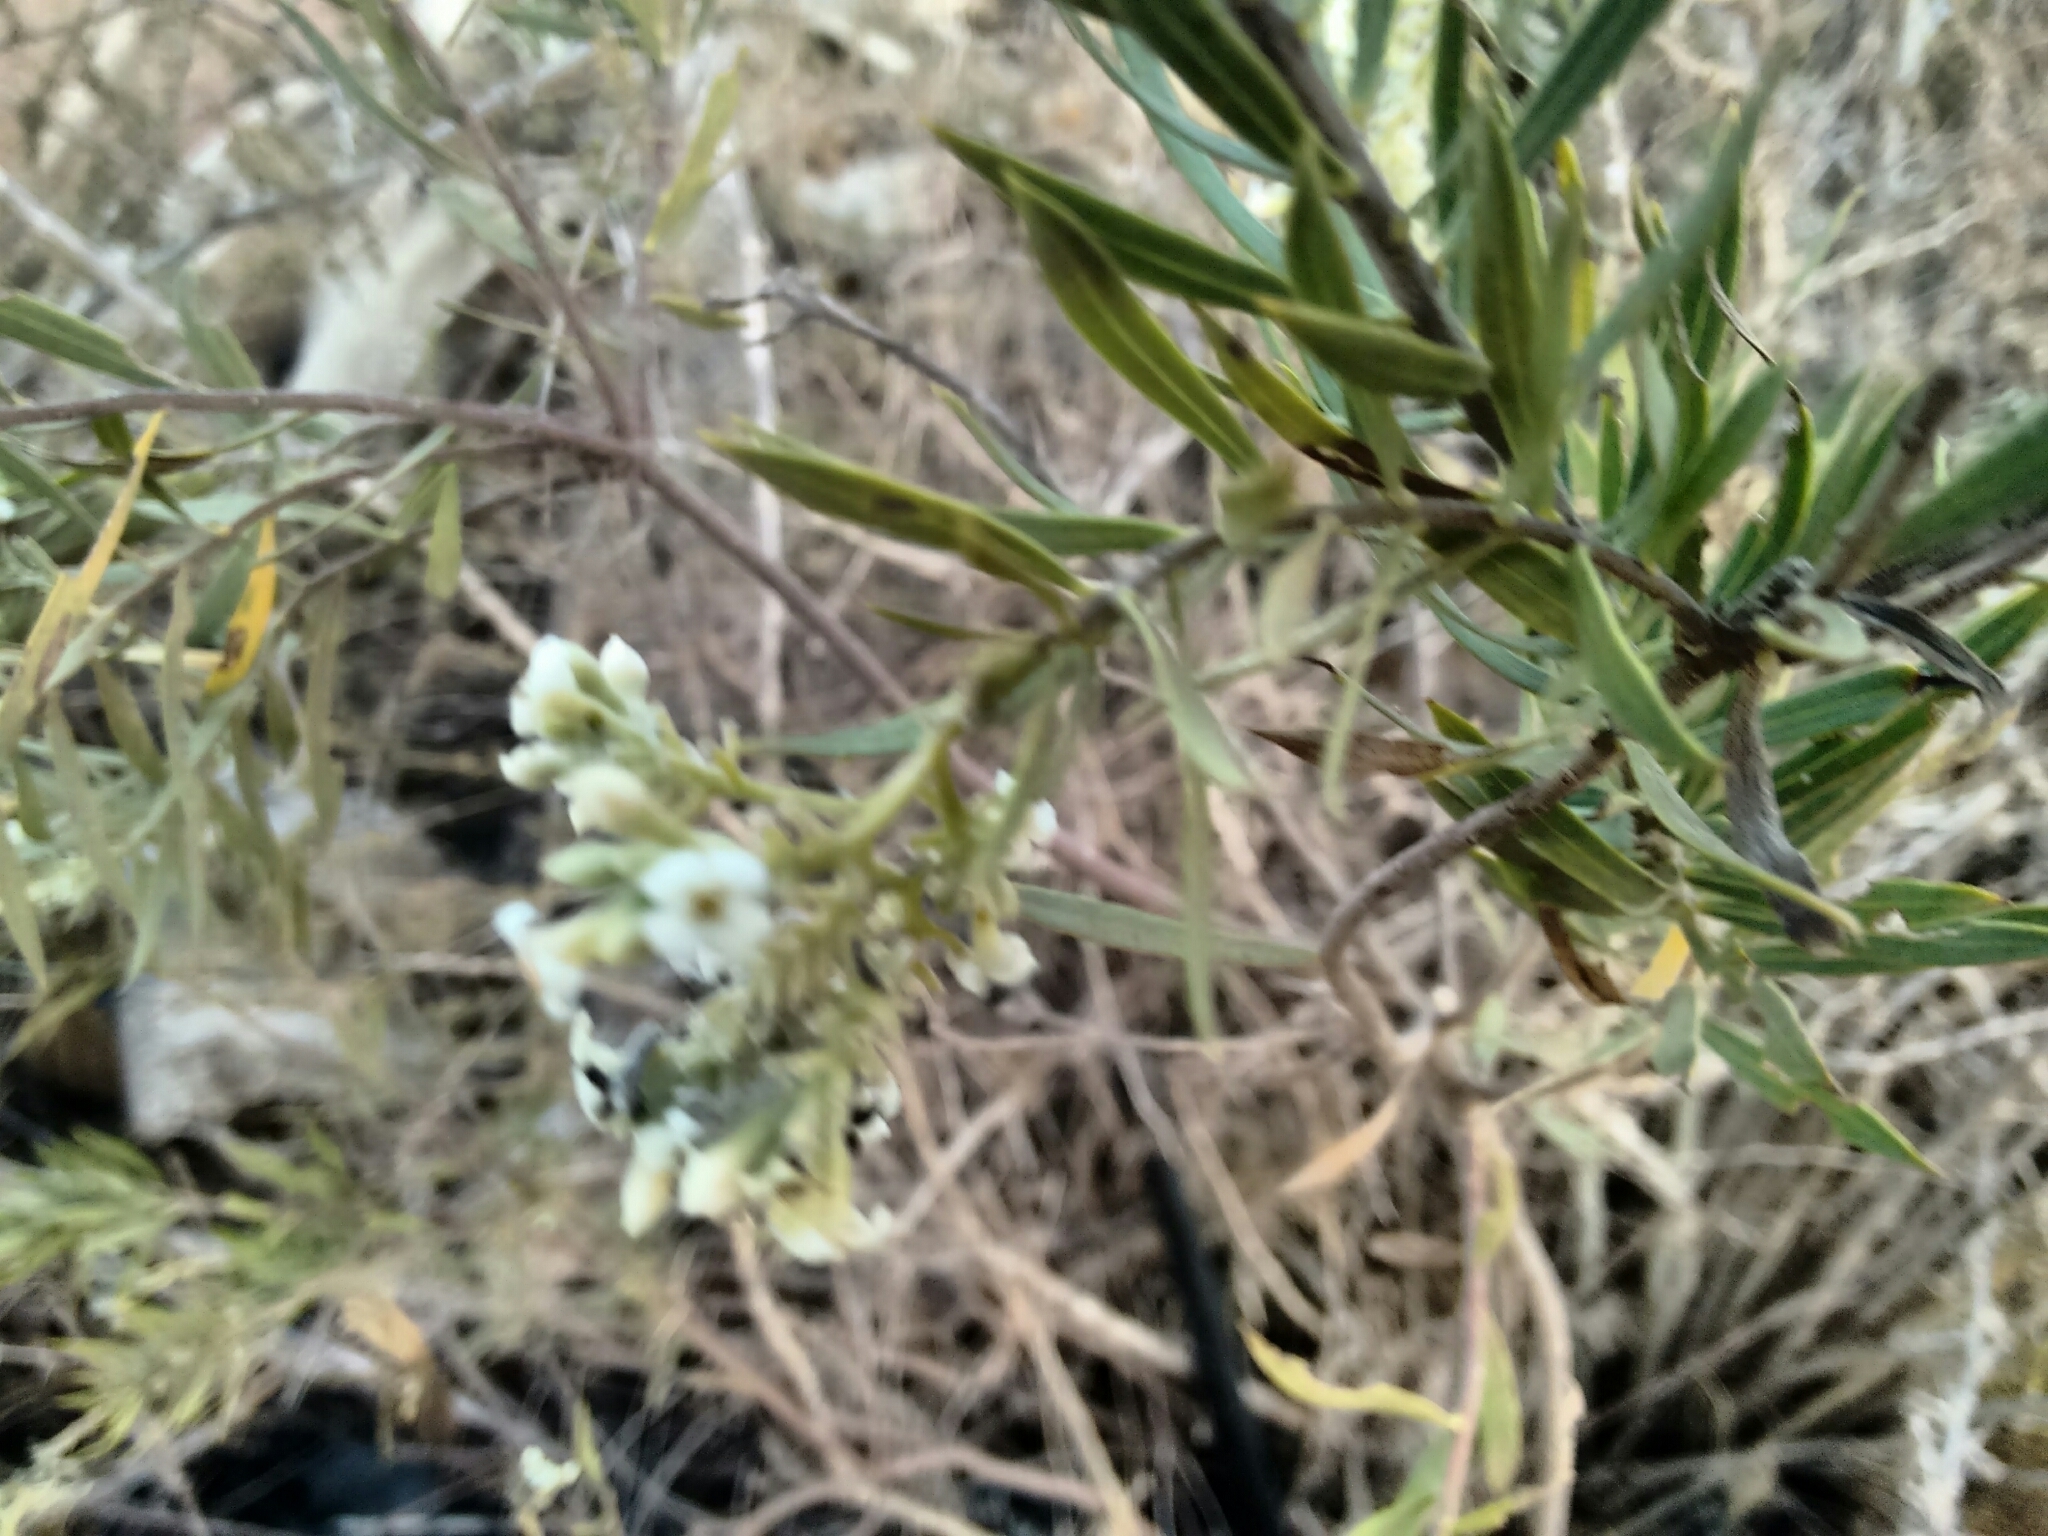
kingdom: Plantae
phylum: Tracheophyta
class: Magnoliopsida
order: Malvales
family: Thymelaeaceae
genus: Daphne
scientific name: Daphne gnidium
